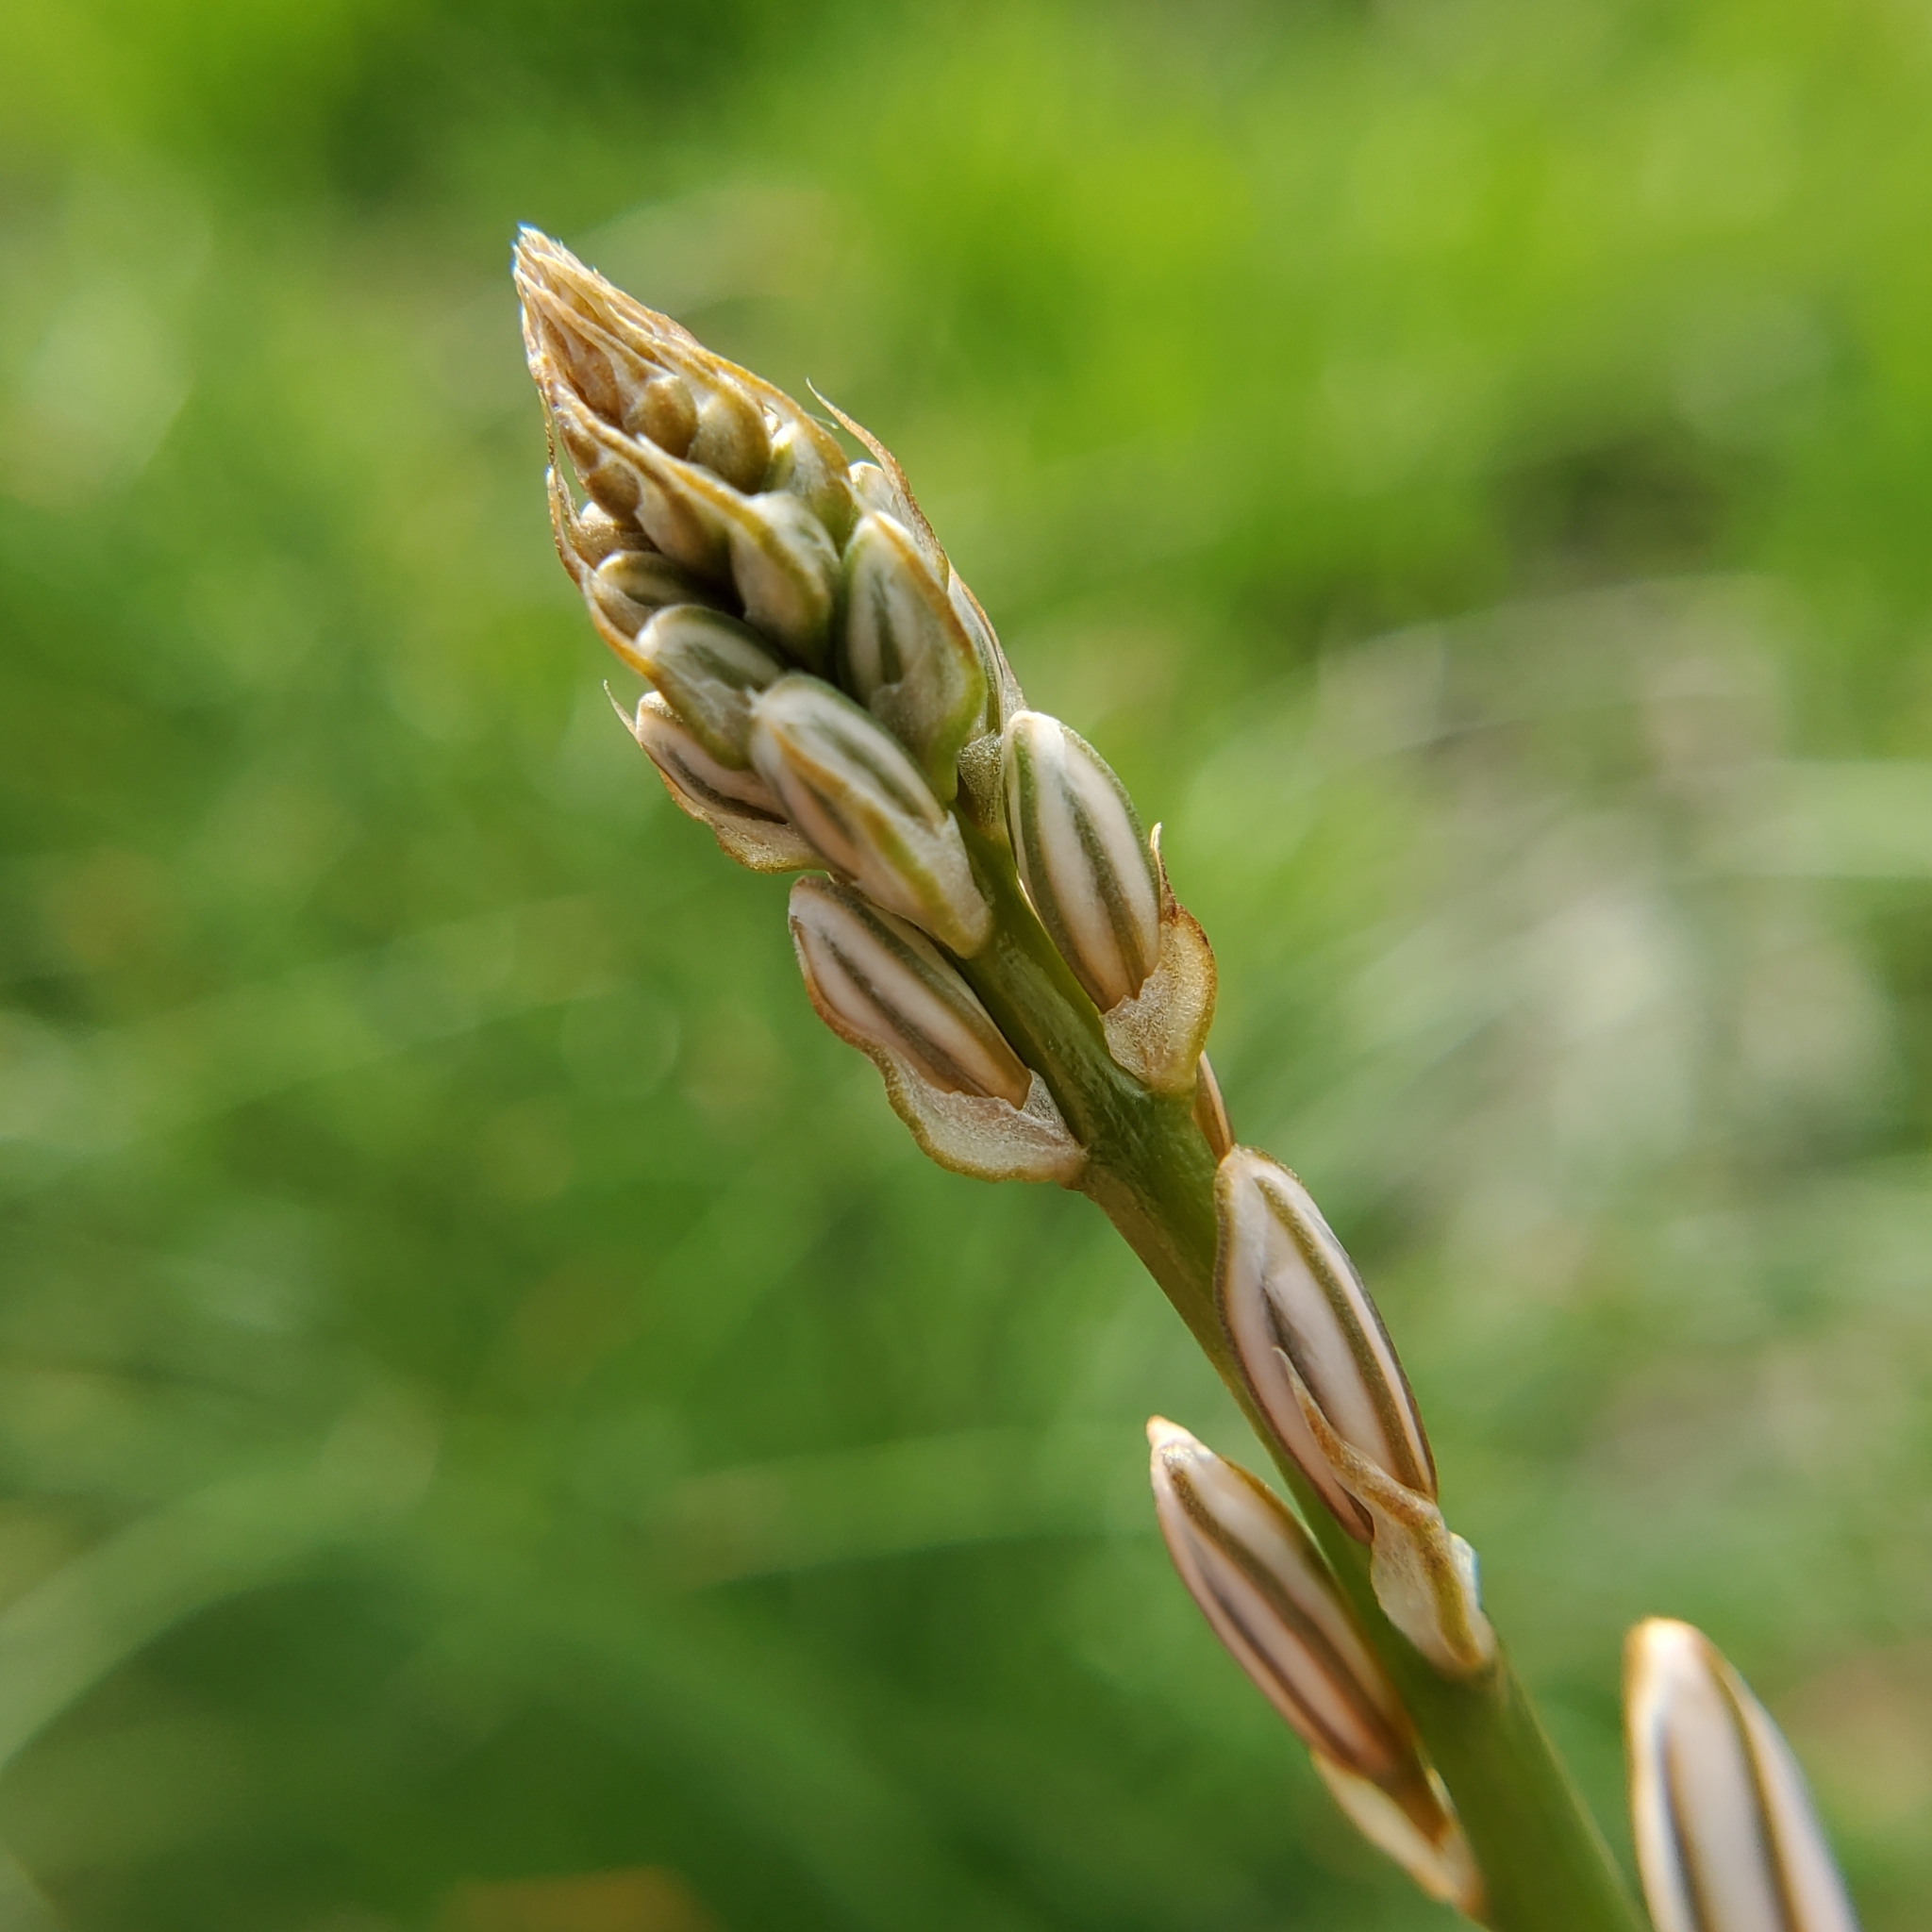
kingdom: Plantae
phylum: Tracheophyta
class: Liliopsida
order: Asparagales
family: Asphodelaceae
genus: Asphodelus
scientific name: Asphodelus fistulosus
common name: Onionweed
